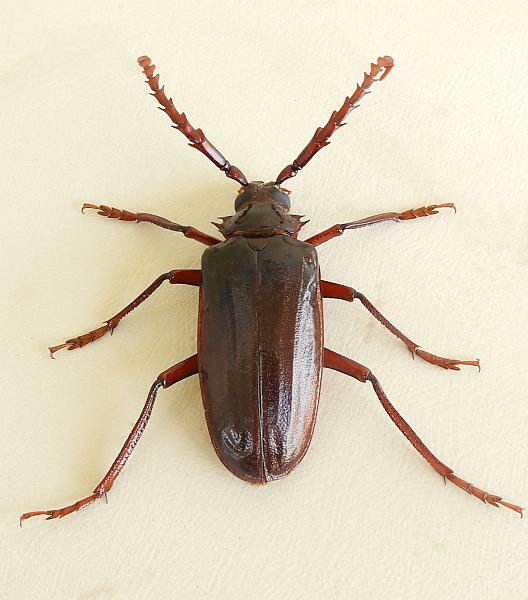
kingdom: Animalia
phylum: Arthropoda
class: Insecta
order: Coleoptera
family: Cerambycidae
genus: Prionus
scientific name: Prionus californicus
